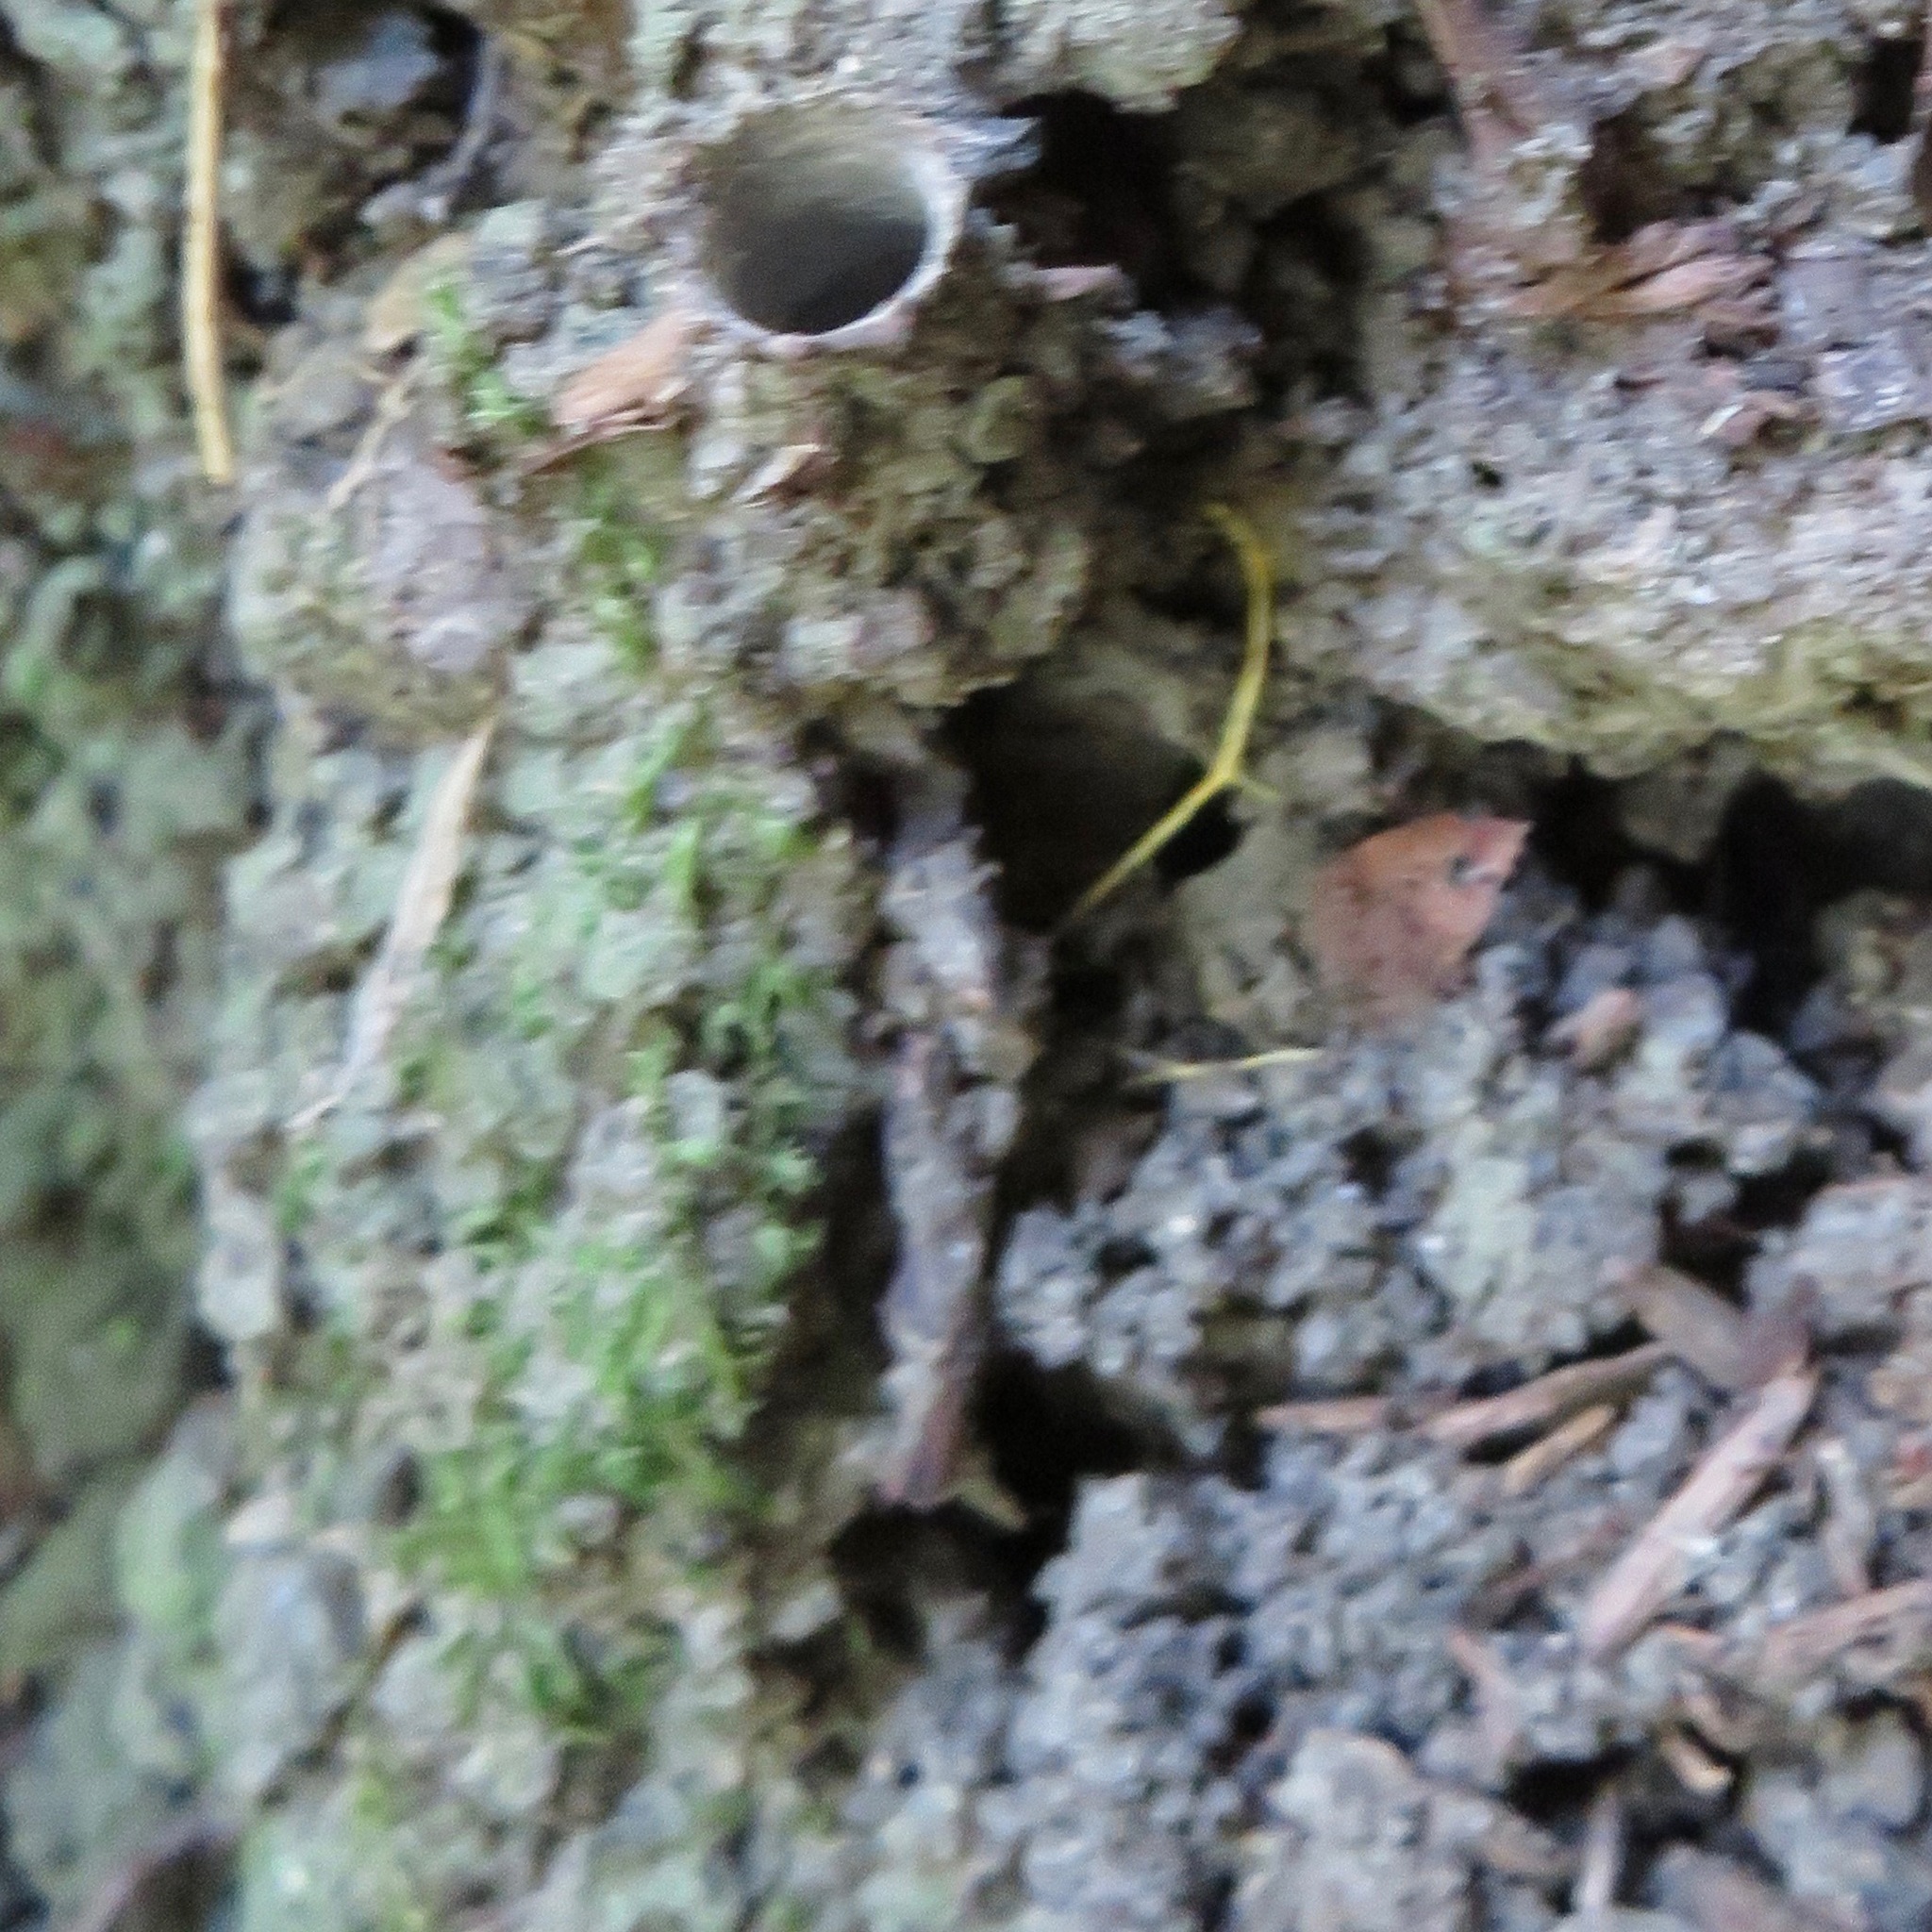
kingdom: Animalia
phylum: Arthropoda
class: Arachnida
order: Araneae
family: Antrodiaetidae
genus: Atypoides
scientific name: Atypoides riversi
